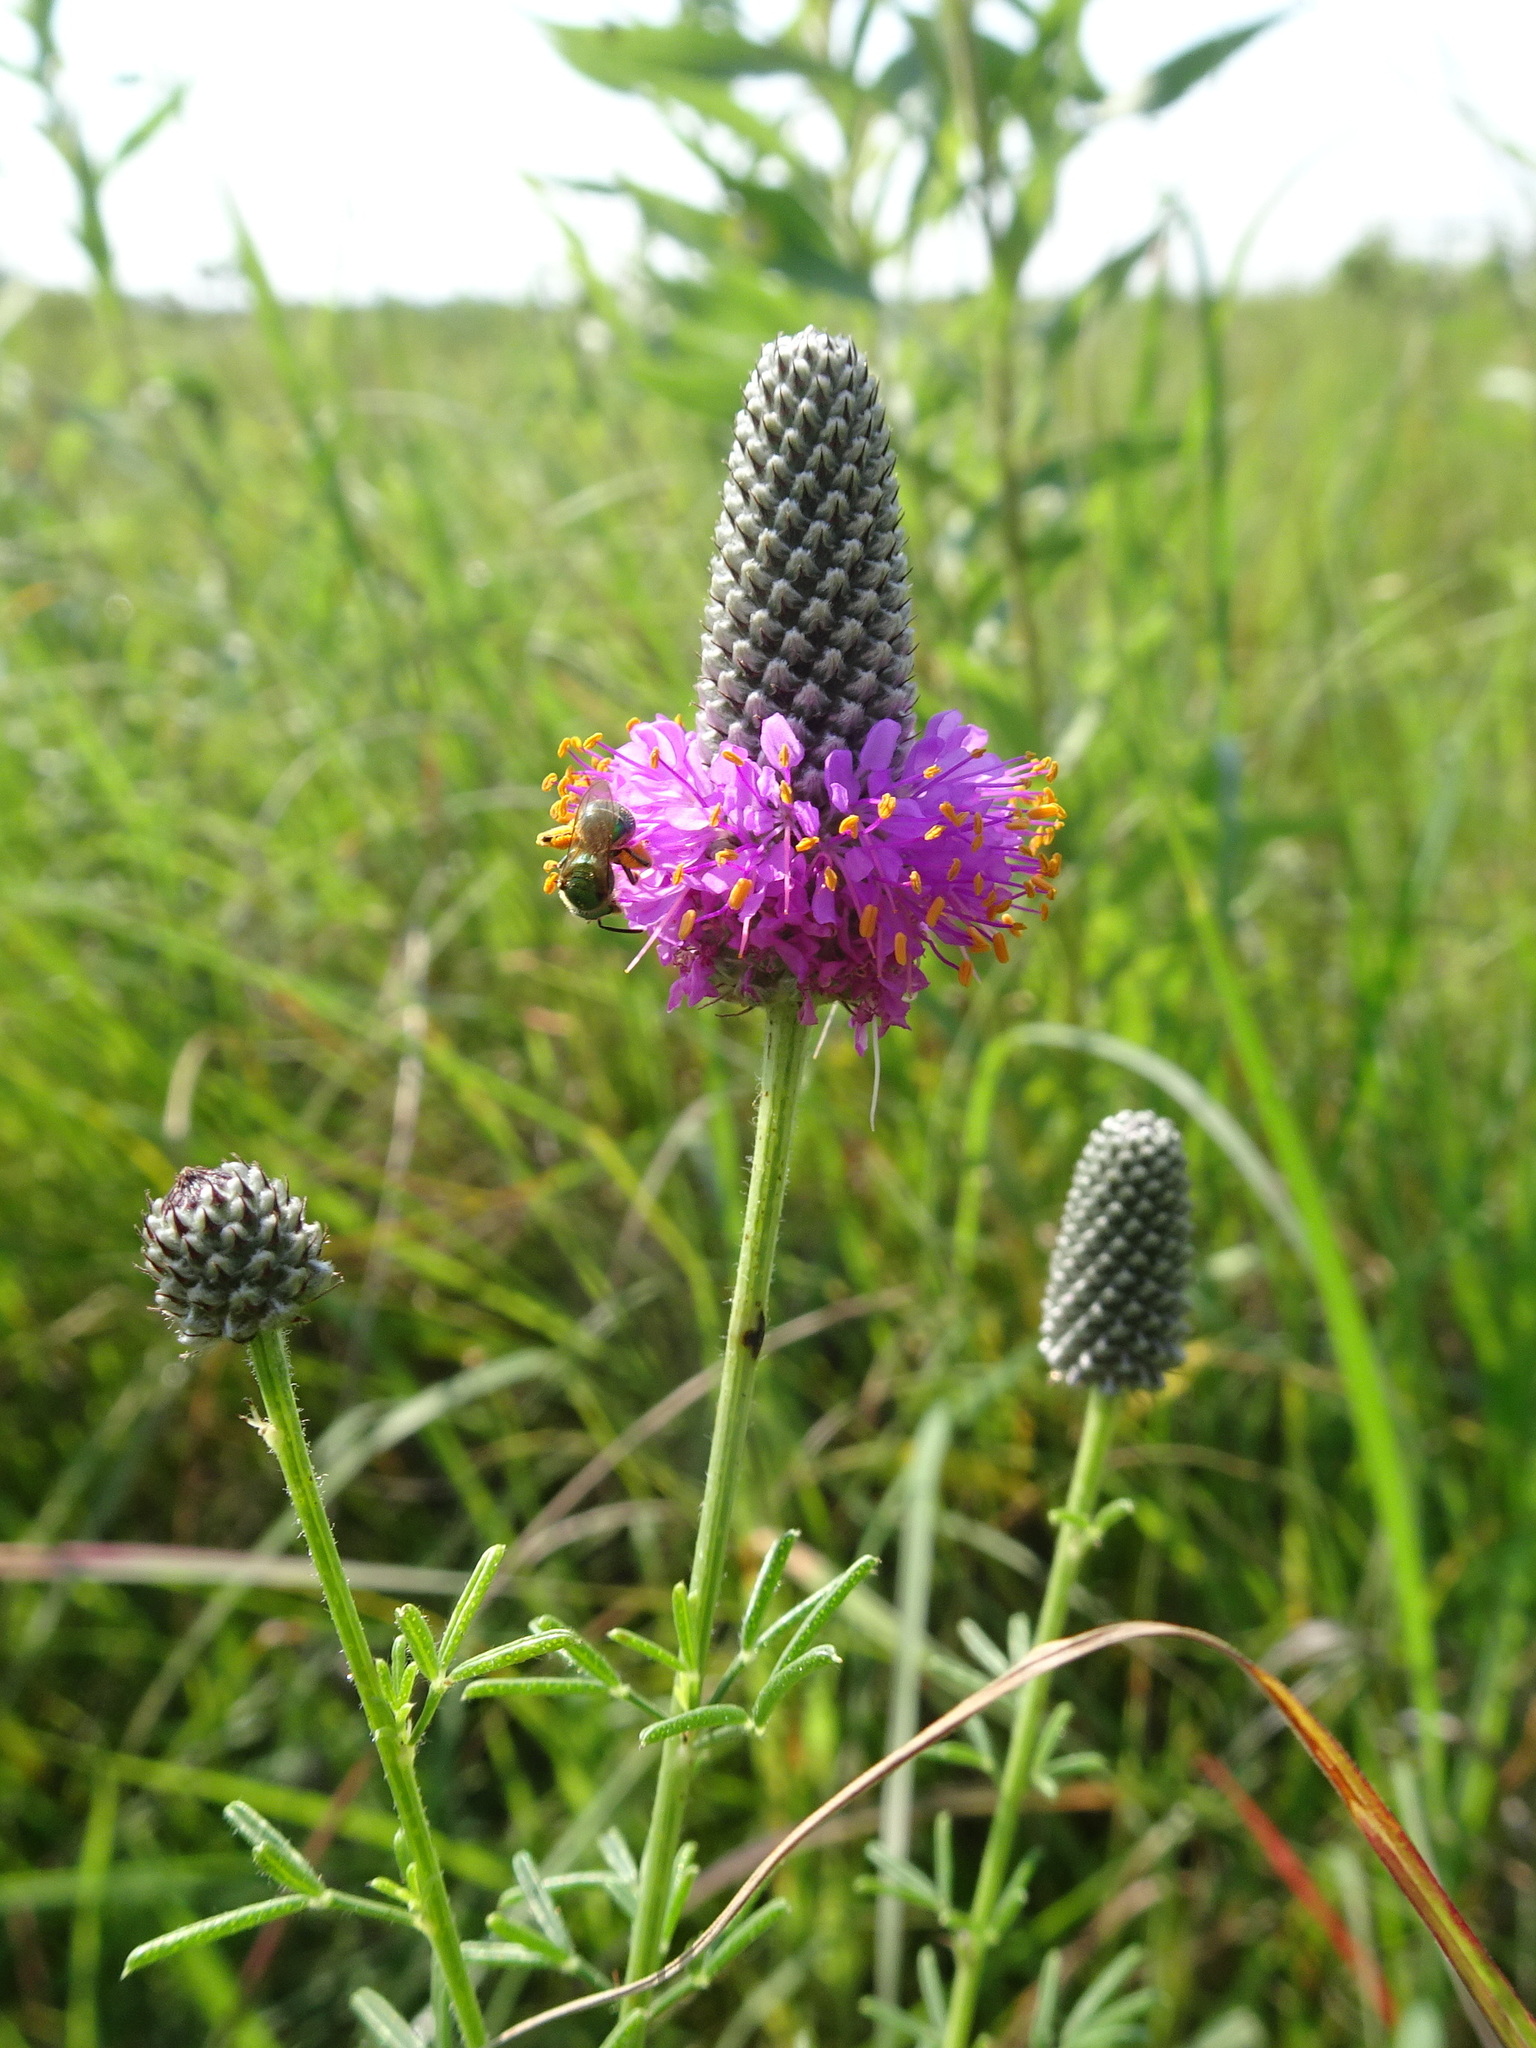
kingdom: Plantae
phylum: Tracheophyta
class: Magnoliopsida
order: Fabales
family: Fabaceae
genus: Dalea
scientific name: Dalea purpurea
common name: Purple prairie-clover
